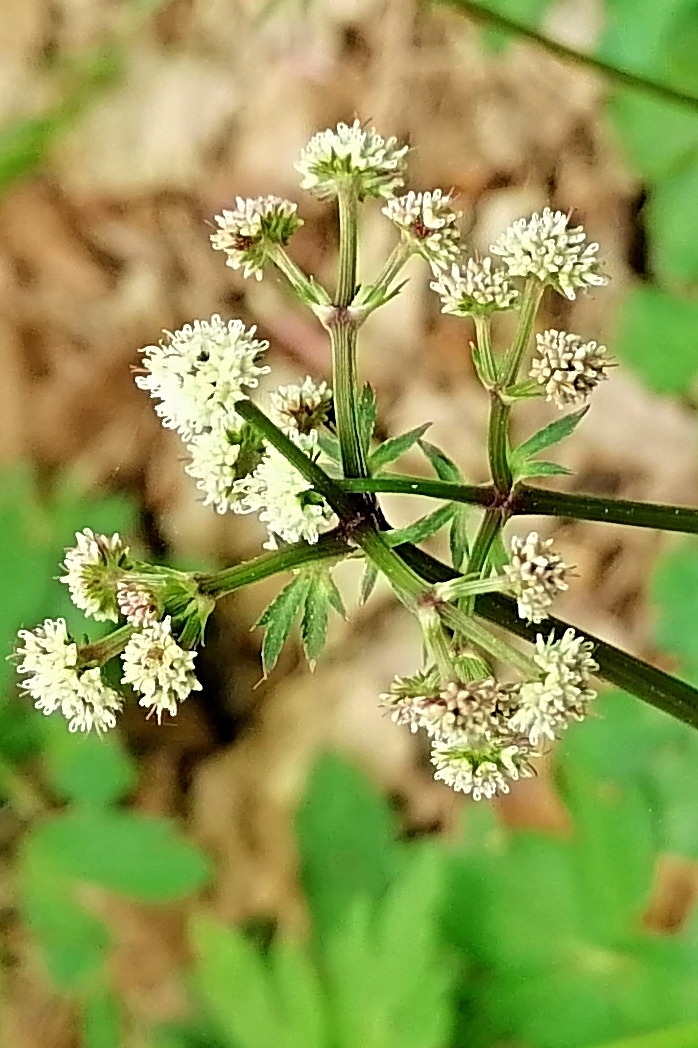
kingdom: Plantae
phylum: Tracheophyta
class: Magnoliopsida
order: Apiales
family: Apiaceae
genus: Sanicula
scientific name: Sanicula europaea
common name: Sanicle
